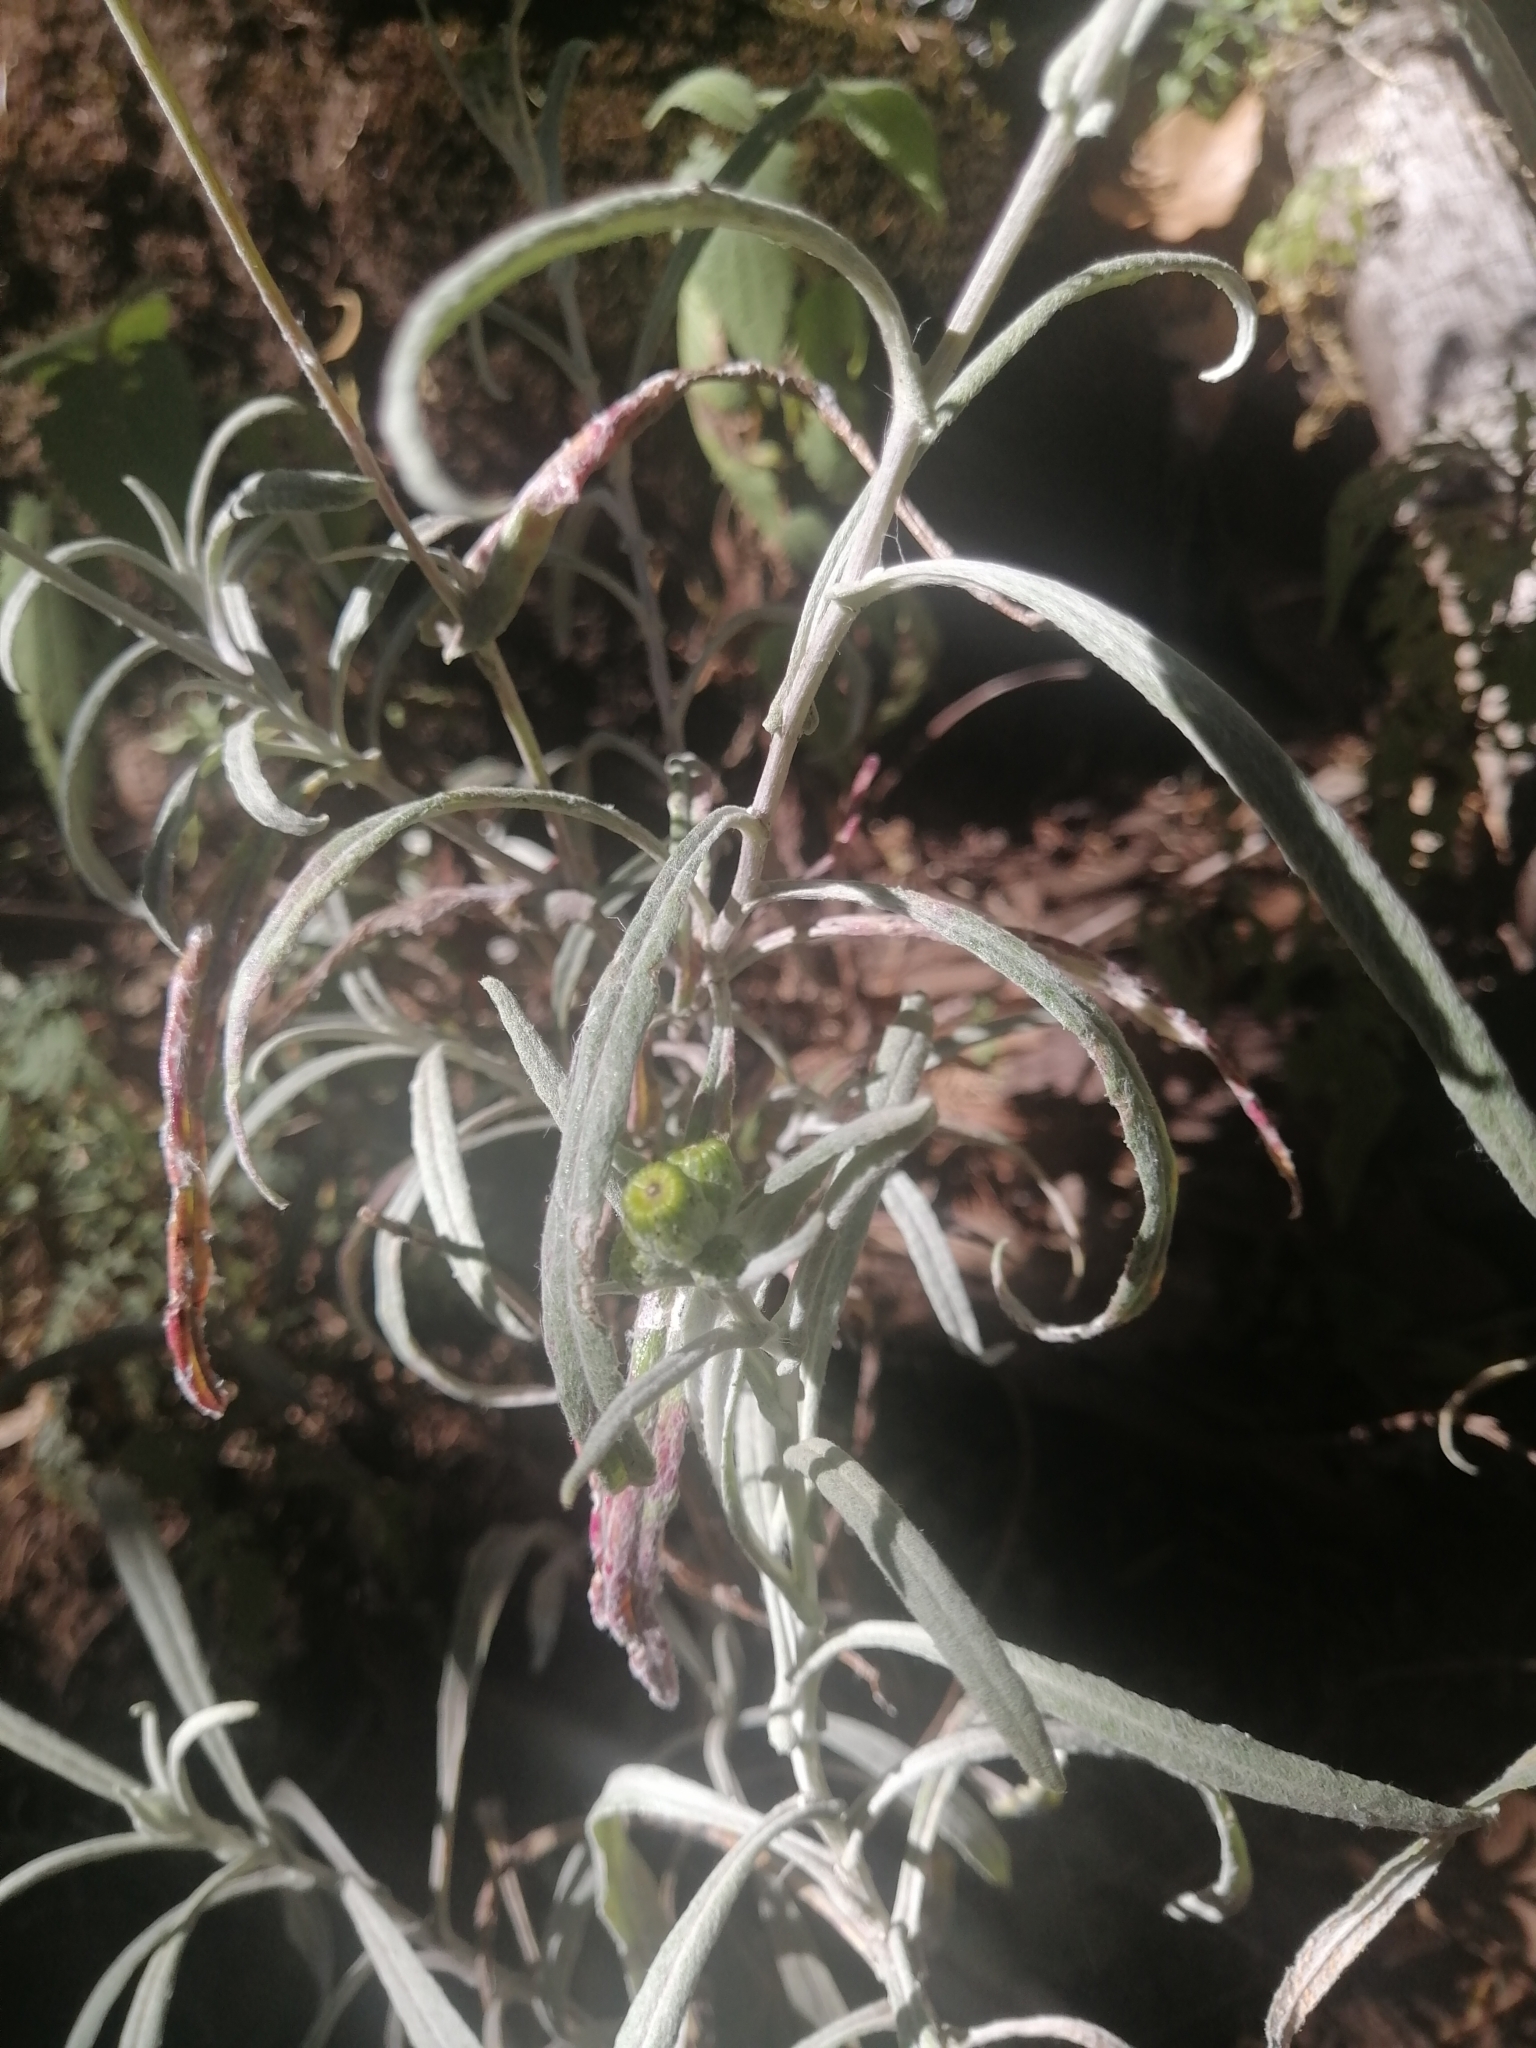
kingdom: Plantae
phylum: Tracheophyta
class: Magnoliopsida
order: Asterales
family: Asteraceae
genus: Senecio
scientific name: Senecio stoechadiformis
